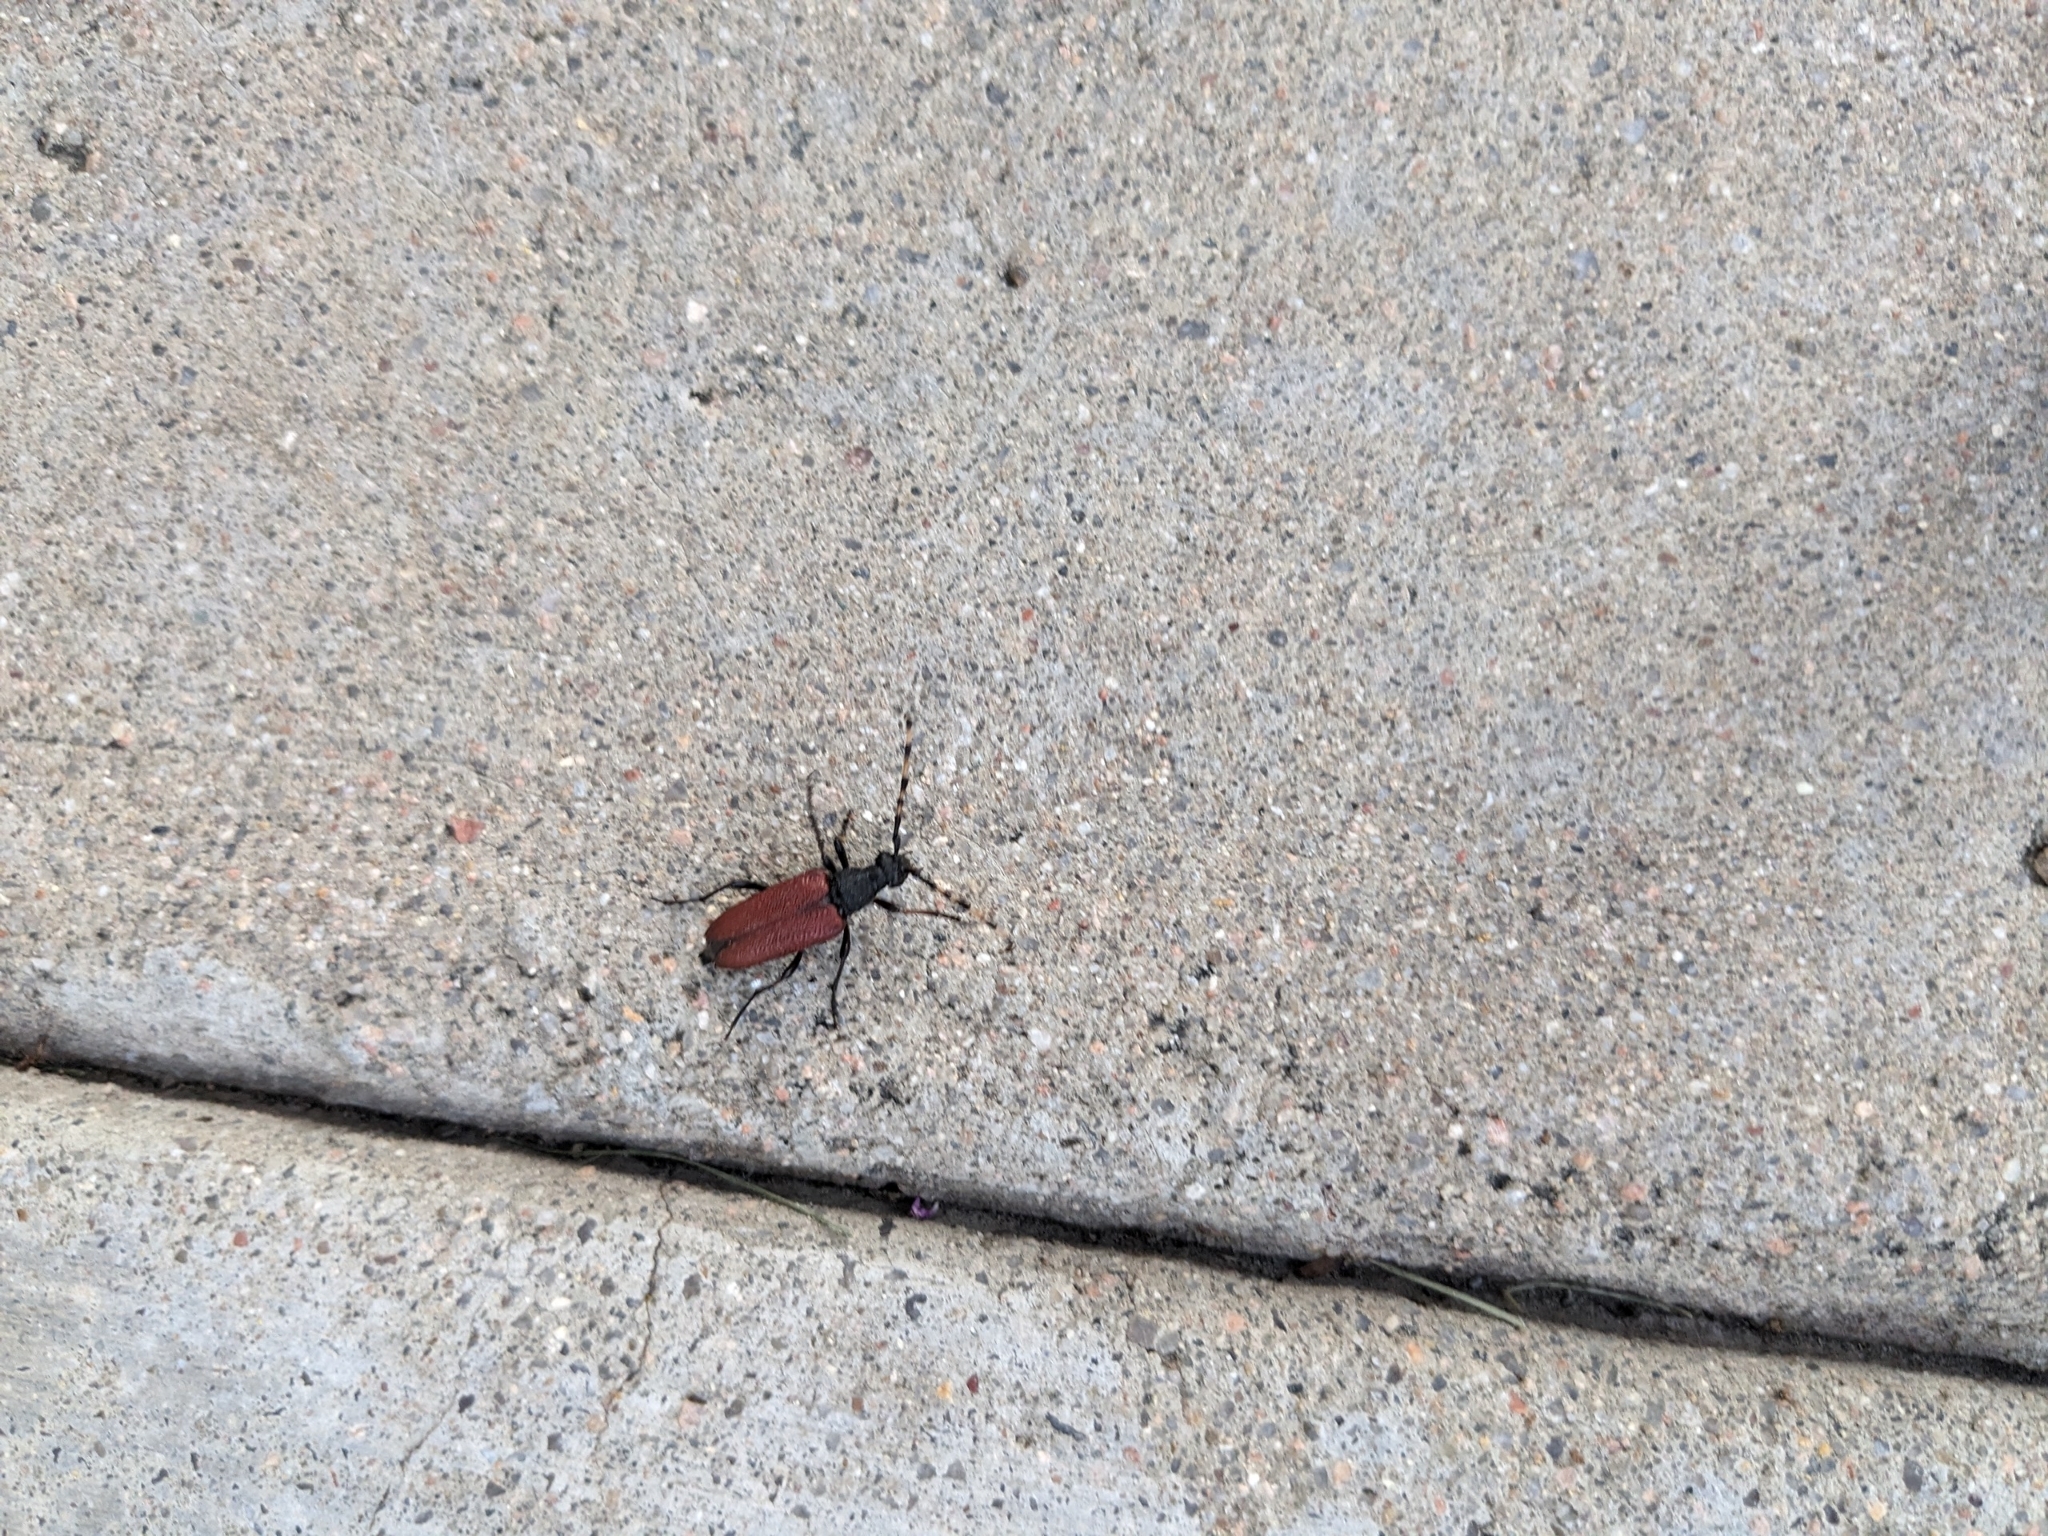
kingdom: Animalia
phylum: Arthropoda
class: Insecta
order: Coleoptera
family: Cerambycidae
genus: Stictoleptura
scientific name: Stictoleptura canadensis
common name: Red-shouldered pine borer
